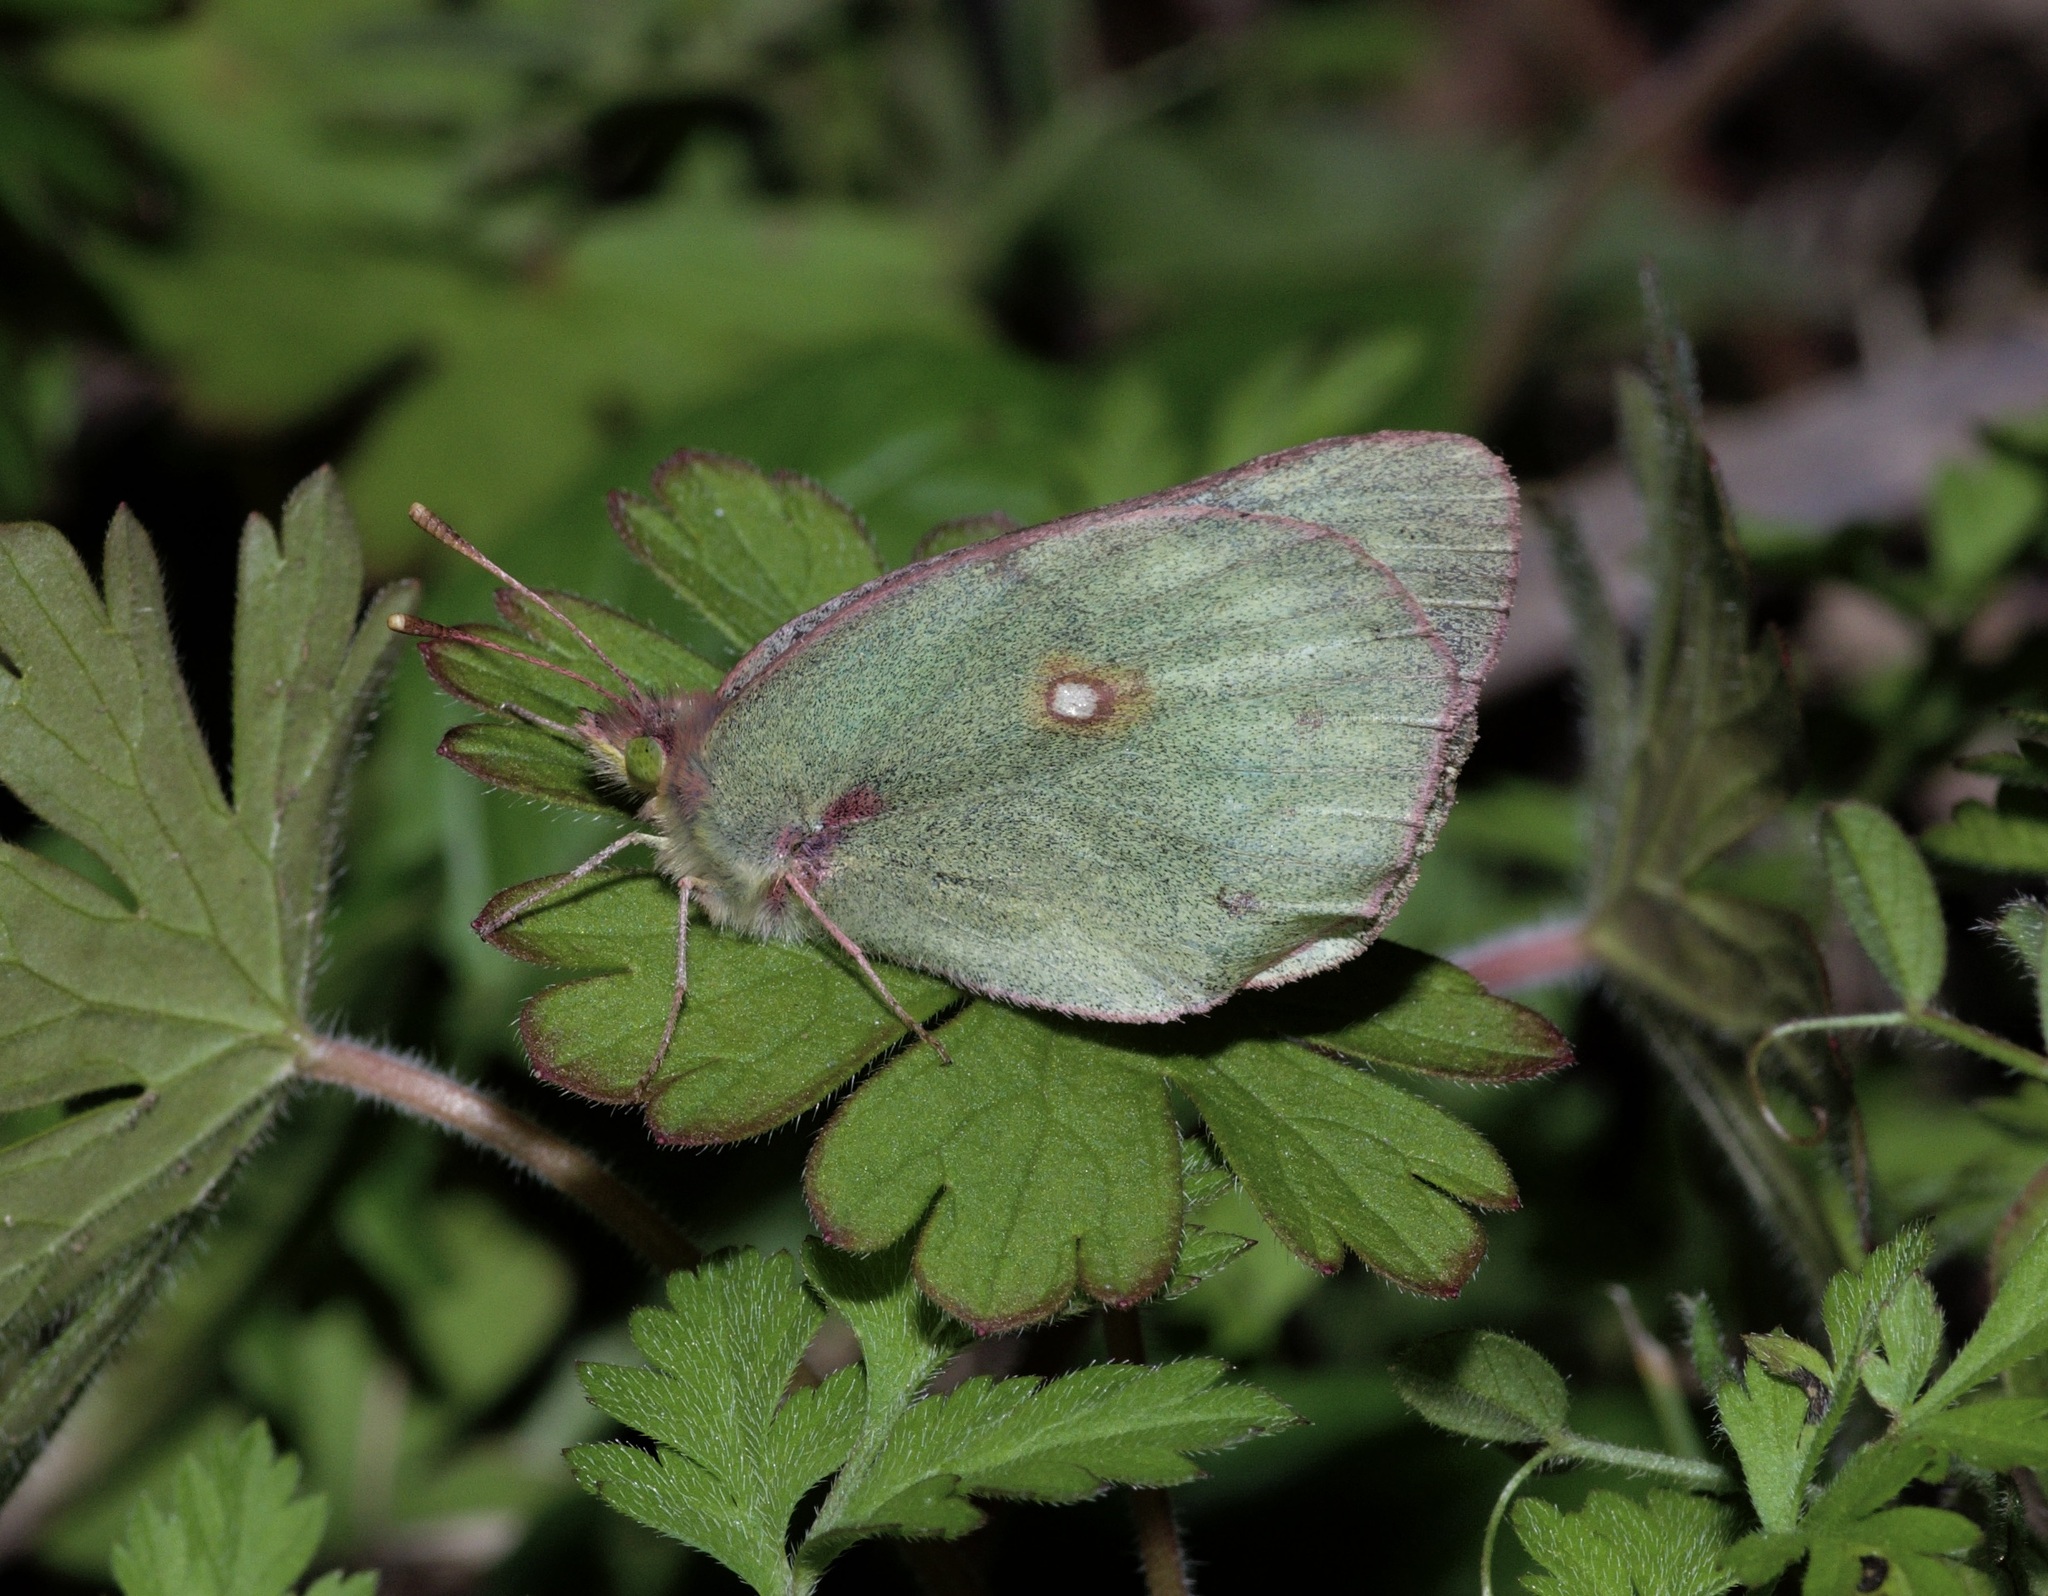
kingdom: Animalia
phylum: Arthropoda
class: Insecta
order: Lepidoptera
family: Pieridae
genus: Colias
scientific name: Colias eurytheme
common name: Alfalfa butterfly
